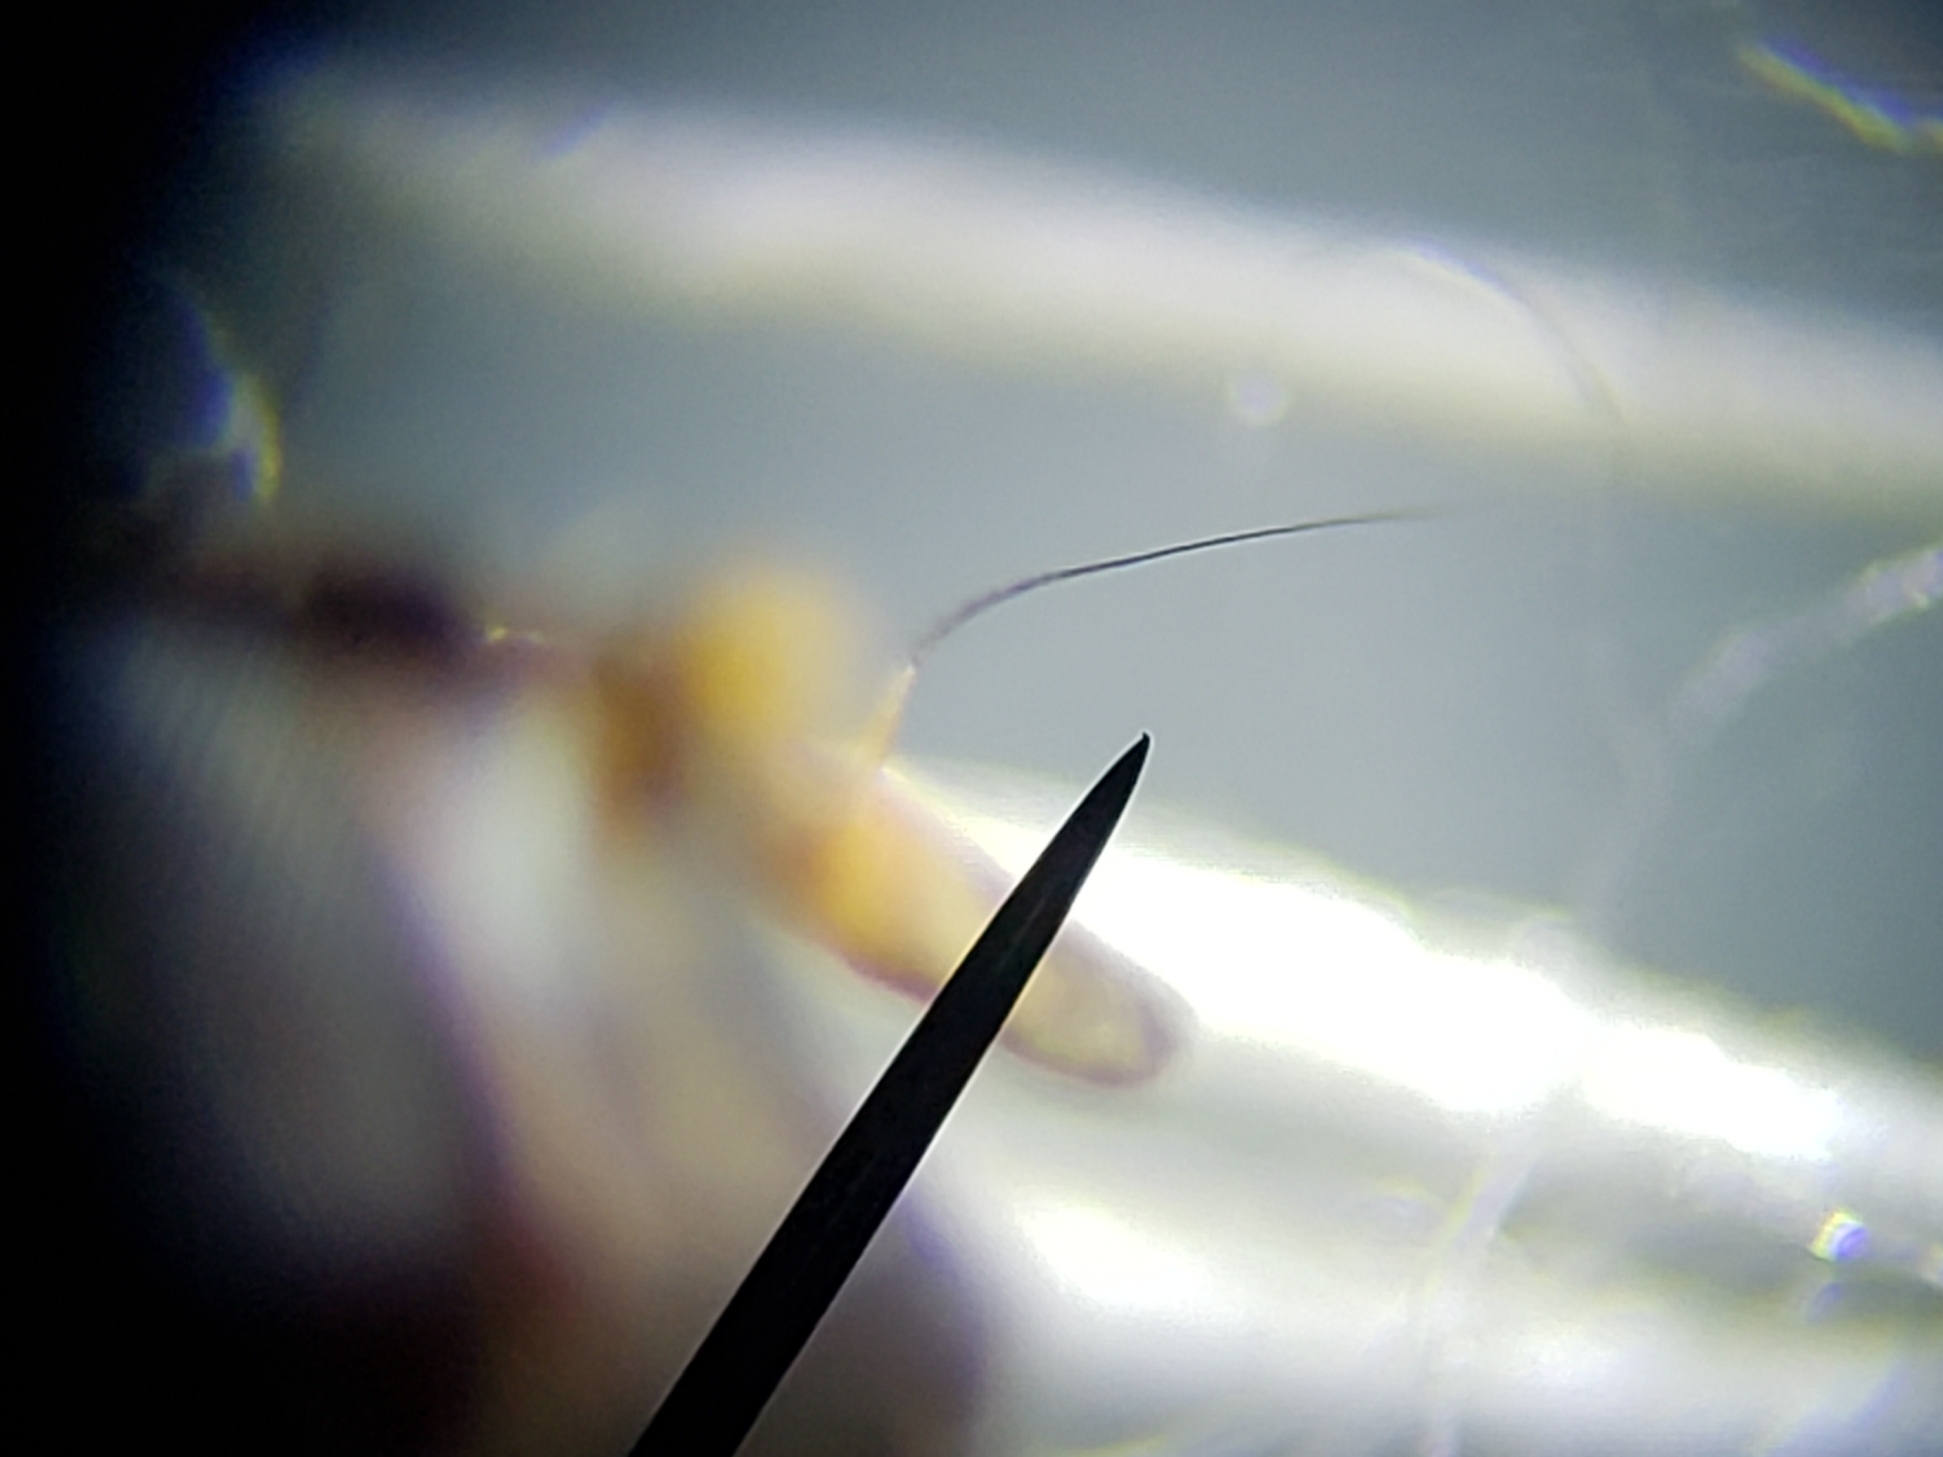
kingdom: Animalia
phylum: Arthropoda
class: Insecta
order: Diptera
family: Micropezidae
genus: Taeniaptera
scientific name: Taeniaptera trivittata
